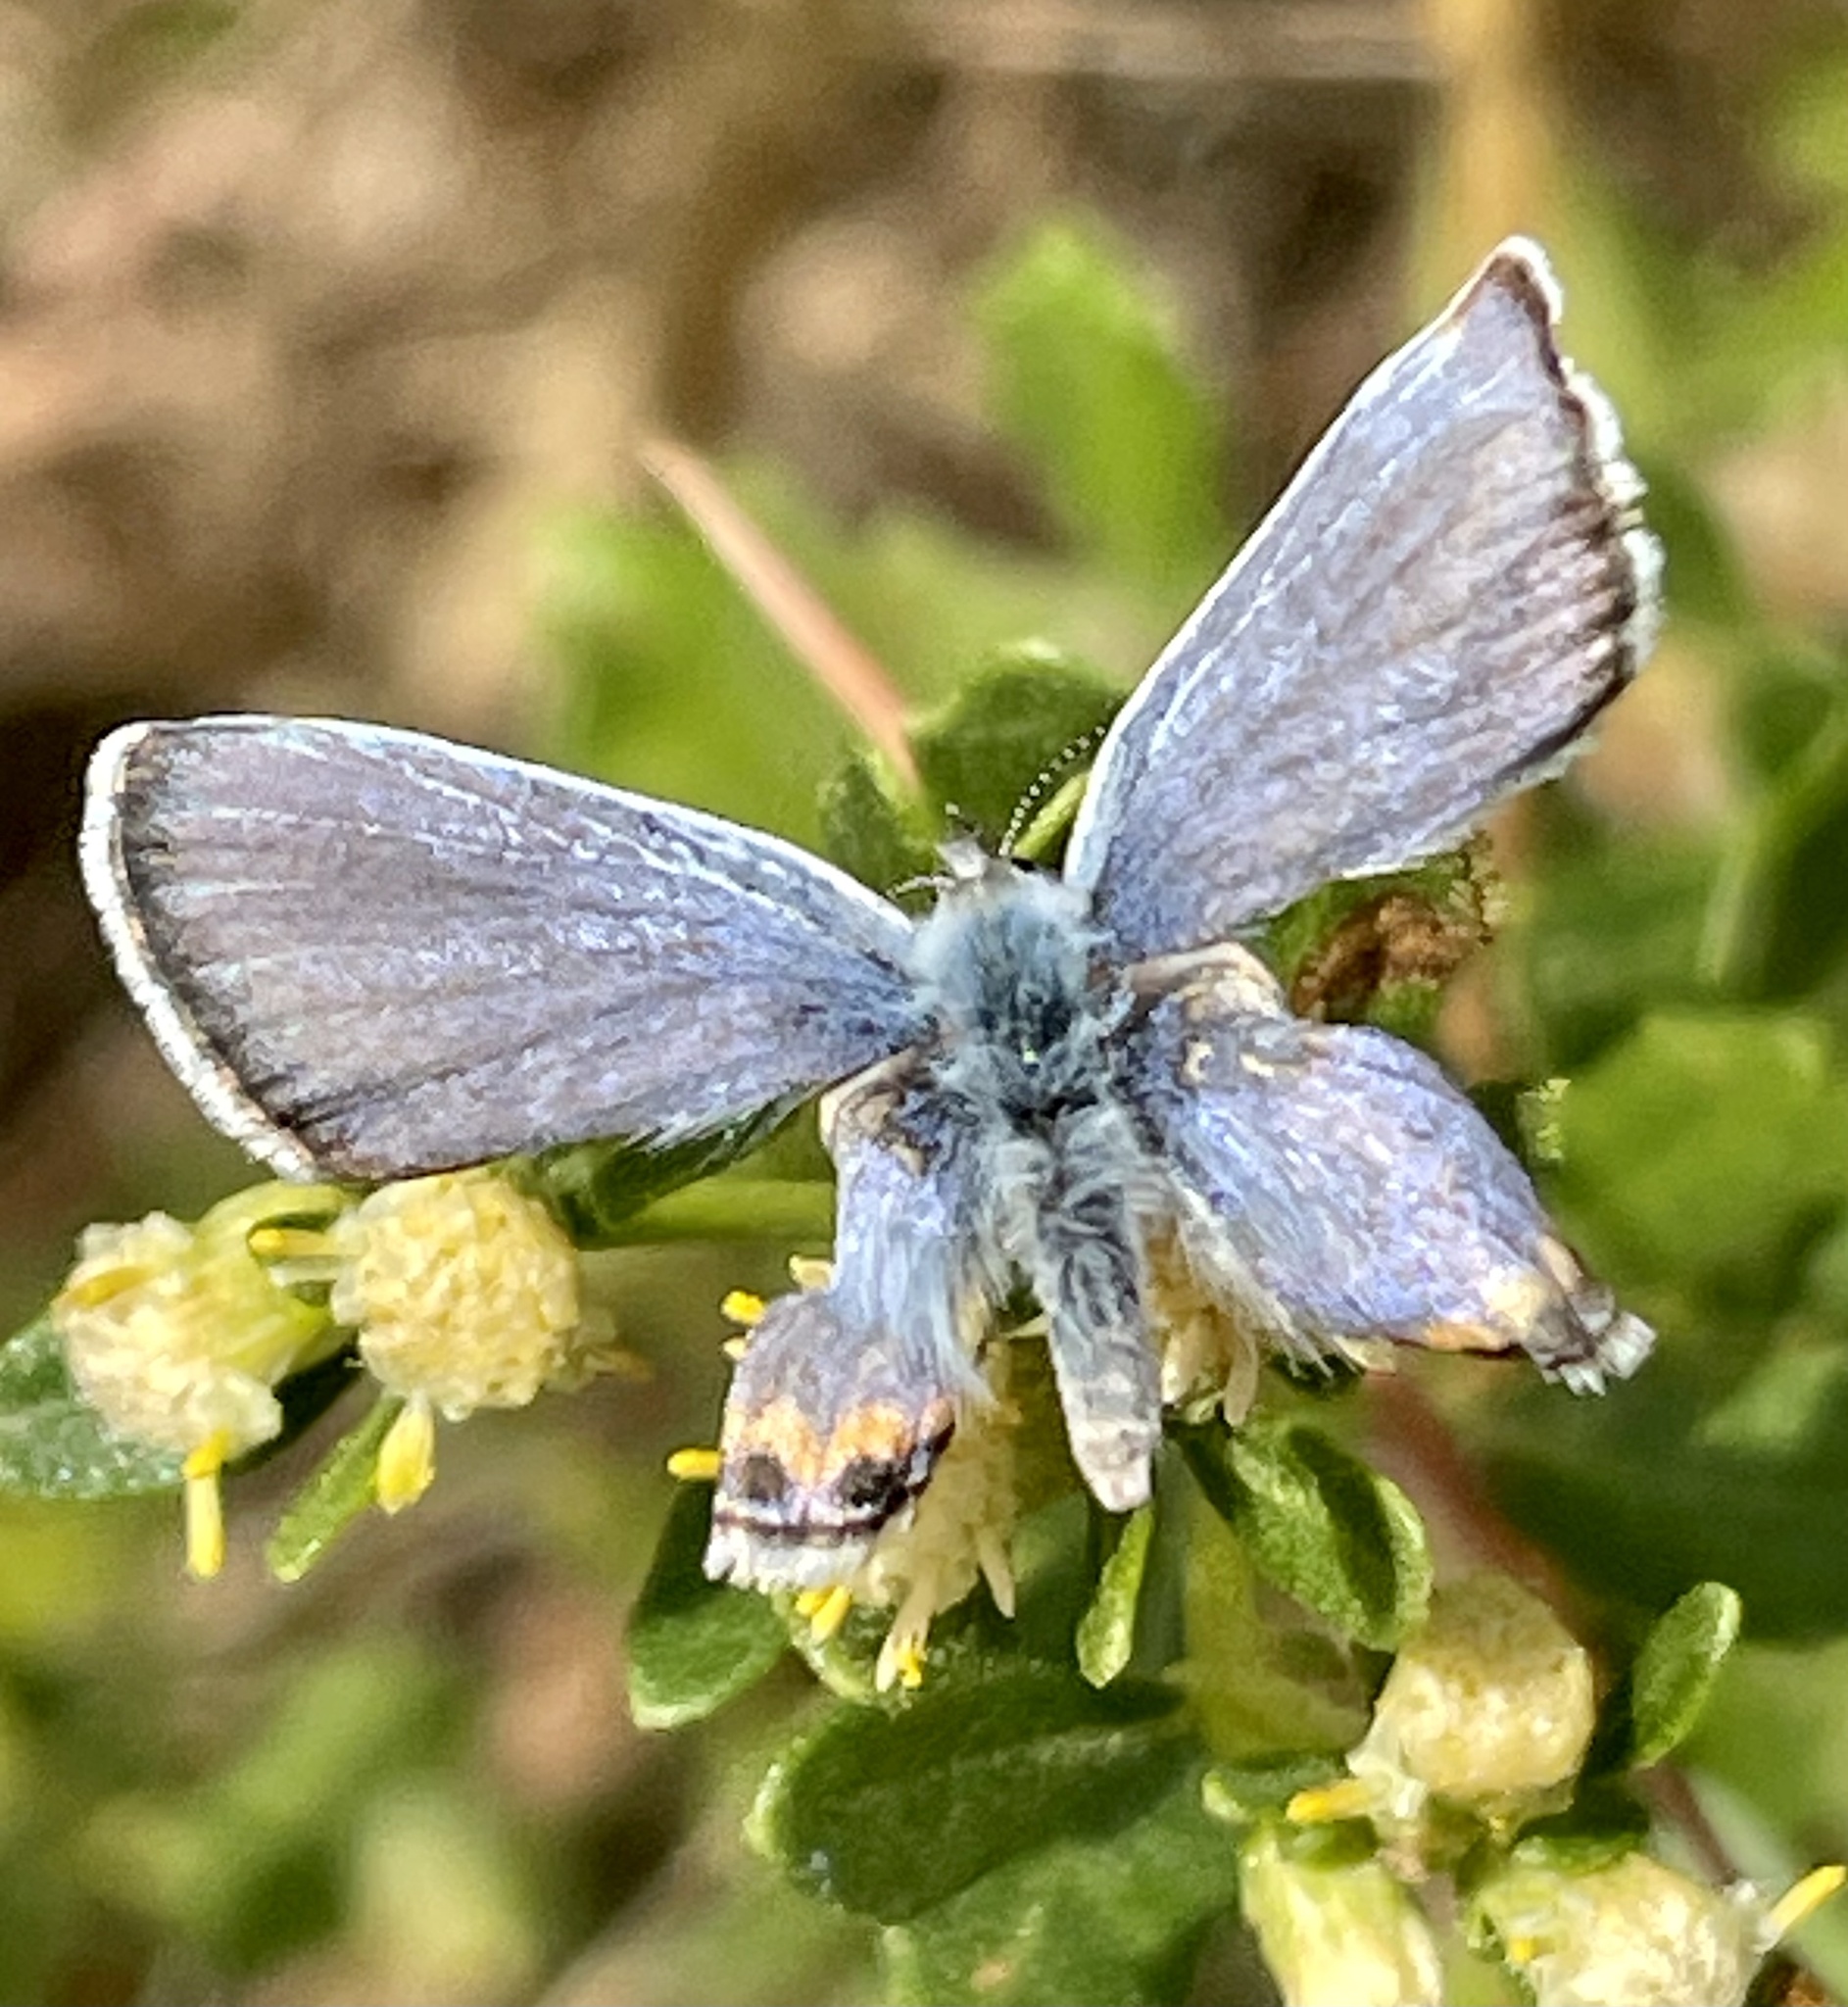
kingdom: Animalia
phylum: Arthropoda
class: Insecta
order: Lepidoptera
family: Lycaenidae
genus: Icaricia
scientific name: Icaricia acmon
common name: Acmon blue
